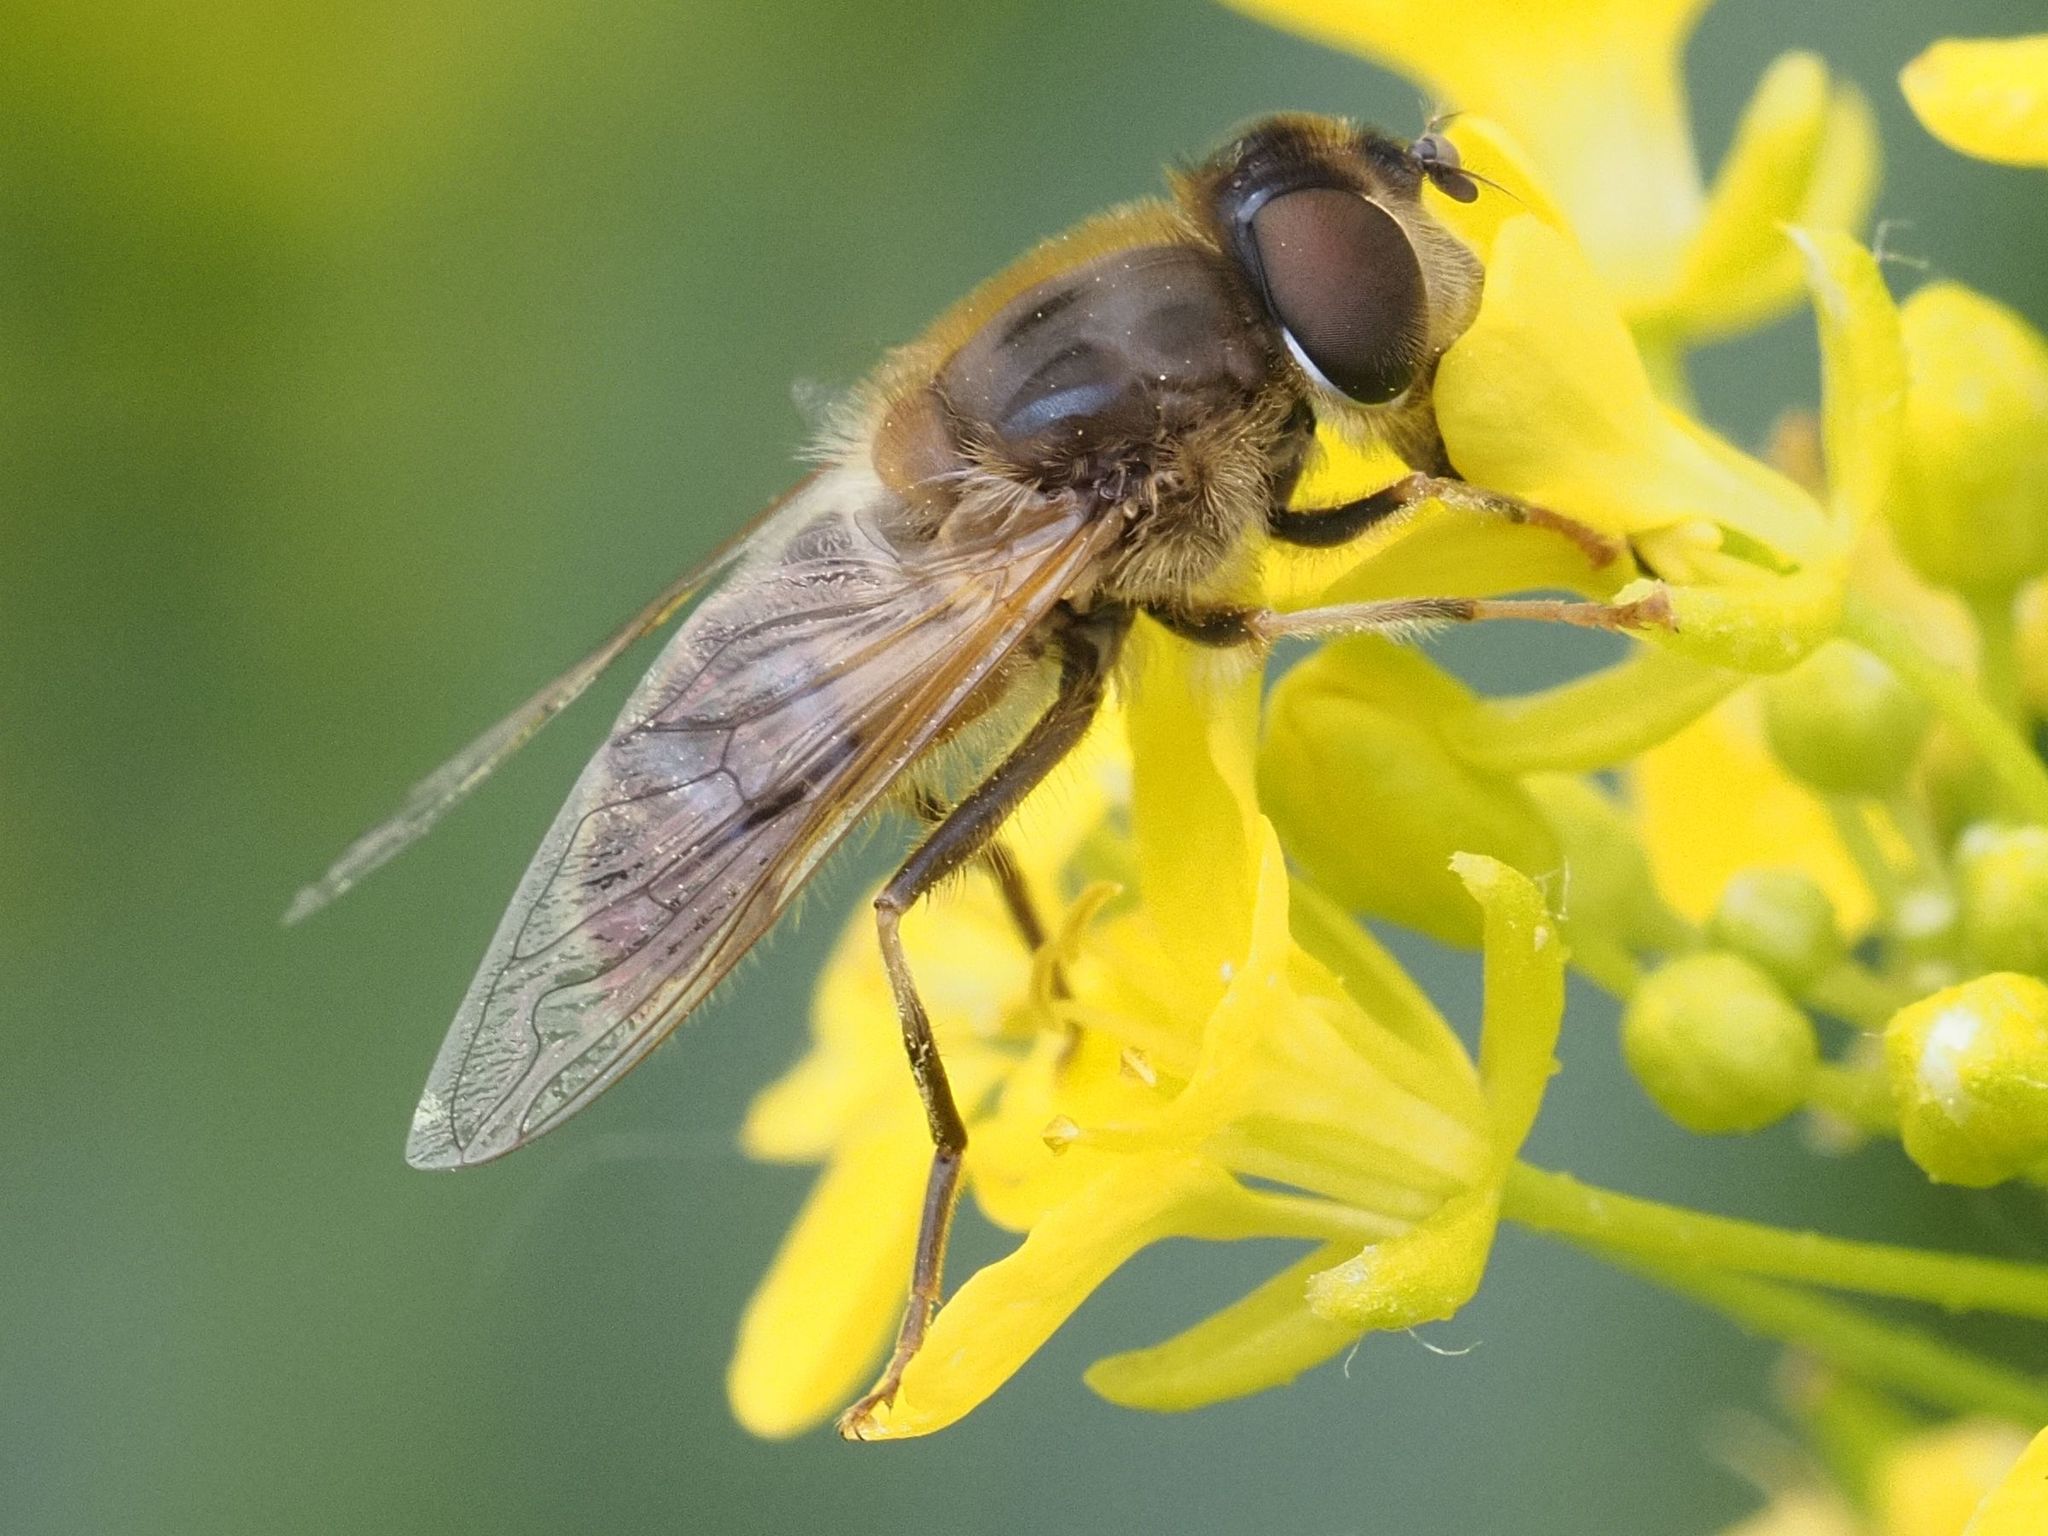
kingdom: Animalia
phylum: Arthropoda
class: Insecta
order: Diptera
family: Syrphidae
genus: Eristalis
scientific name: Eristalis pertinax
